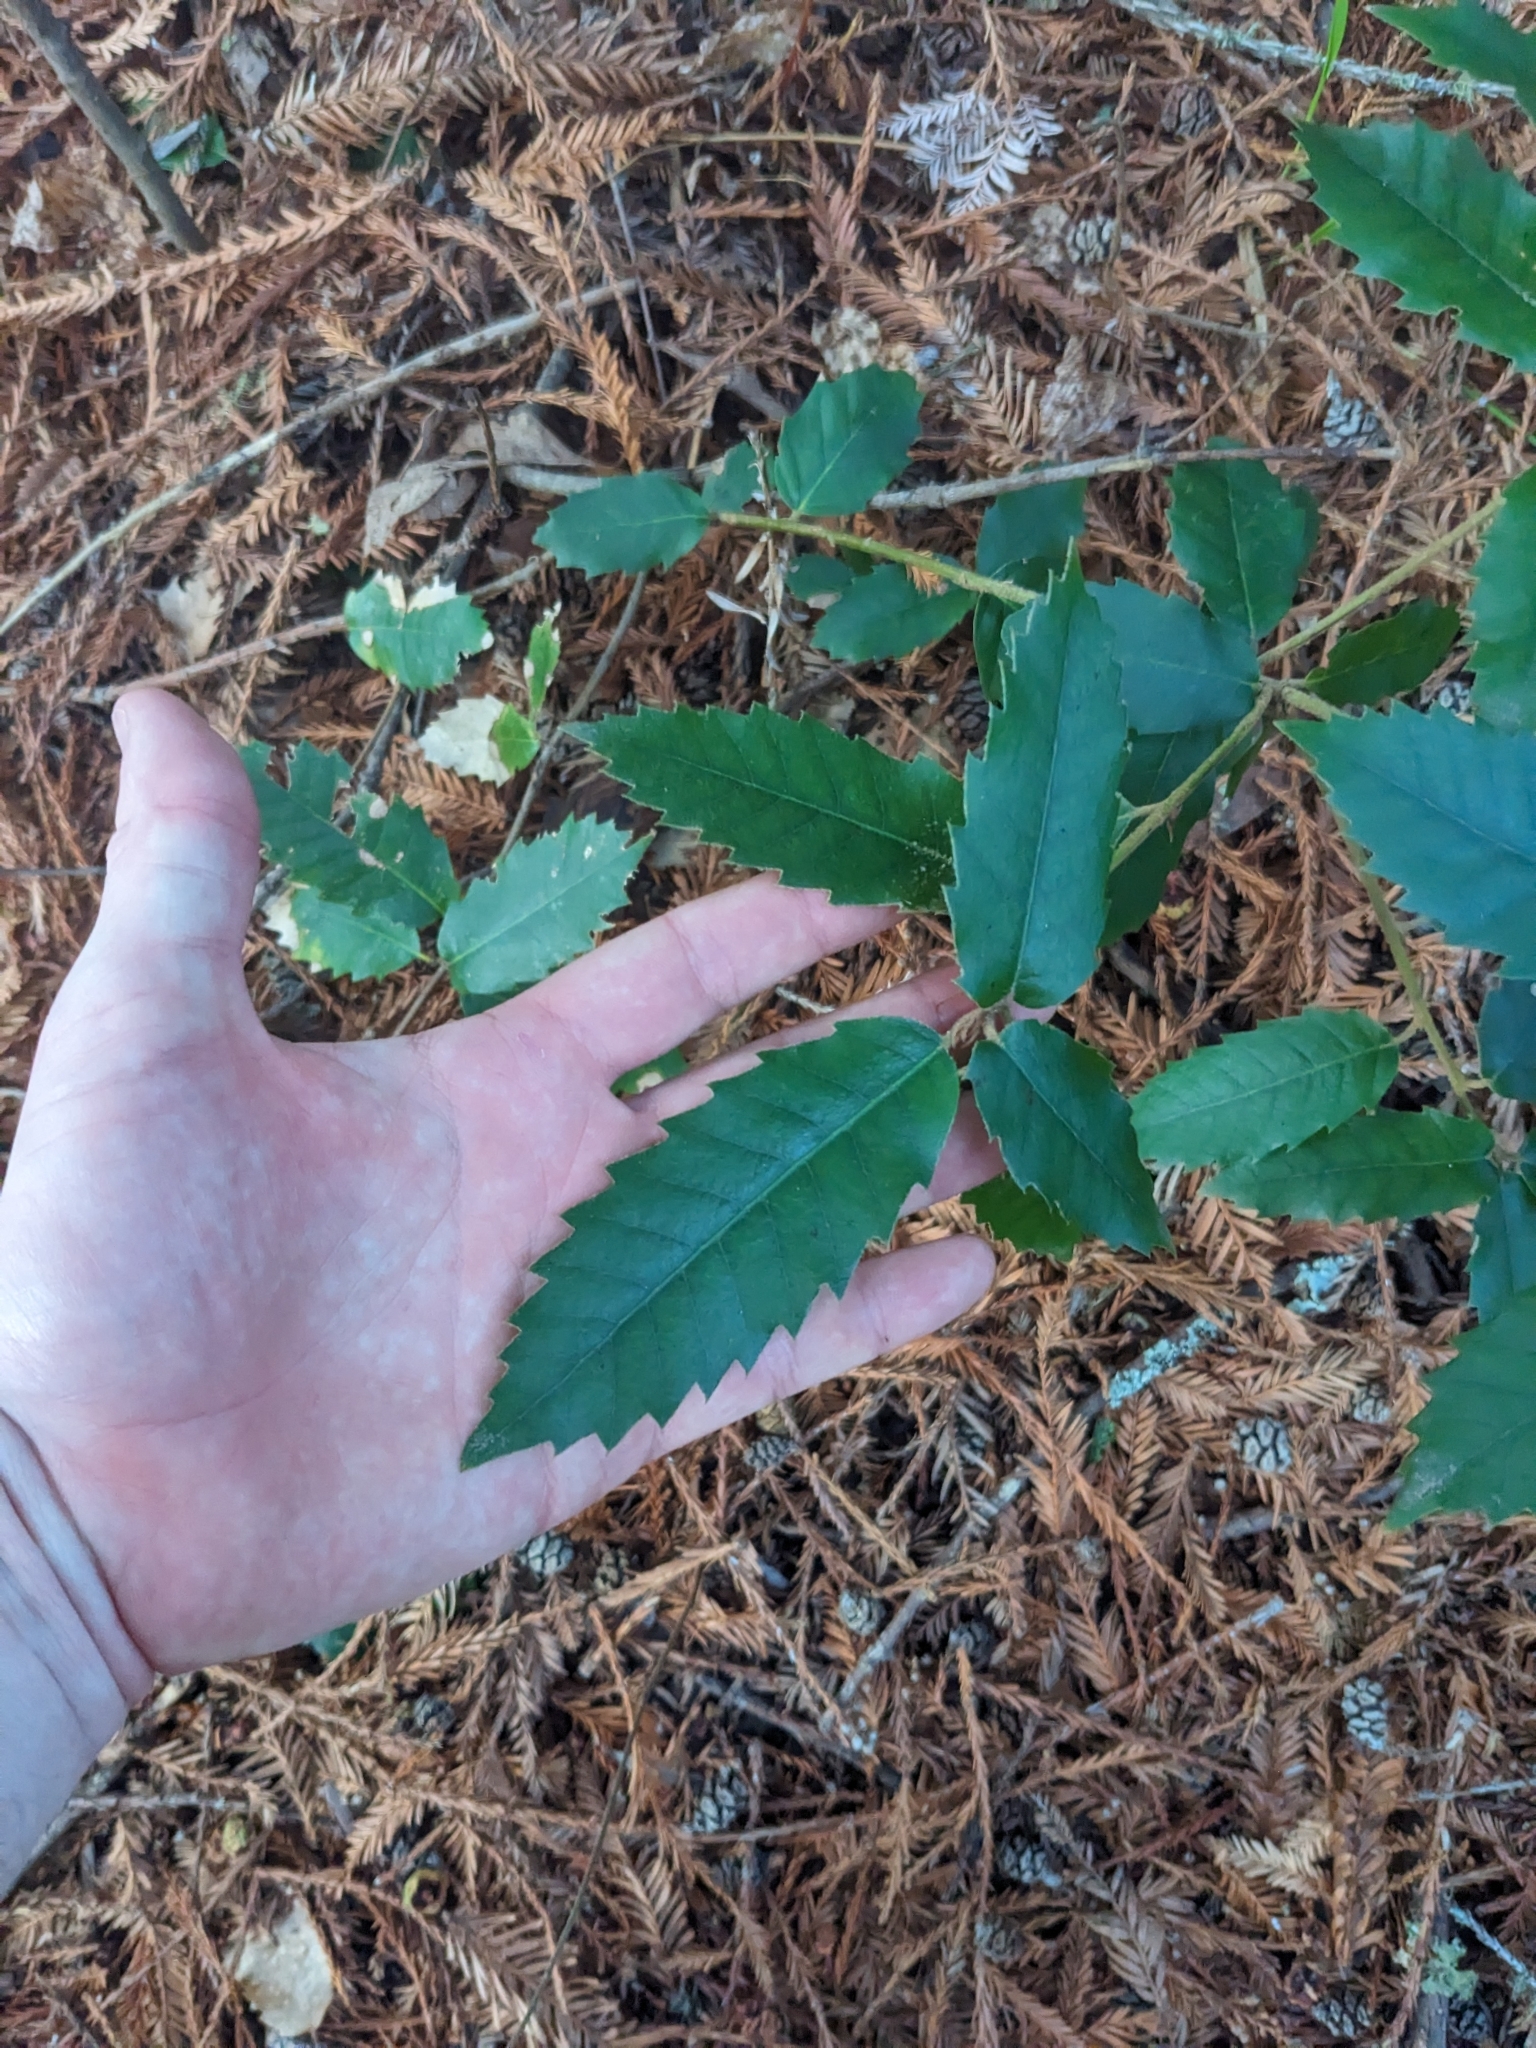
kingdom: Plantae
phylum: Tracheophyta
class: Magnoliopsida
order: Fagales
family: Fagaceae
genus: Notholithocarpus
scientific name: Notholithocarpus densiflorus
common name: Tan bark oak
